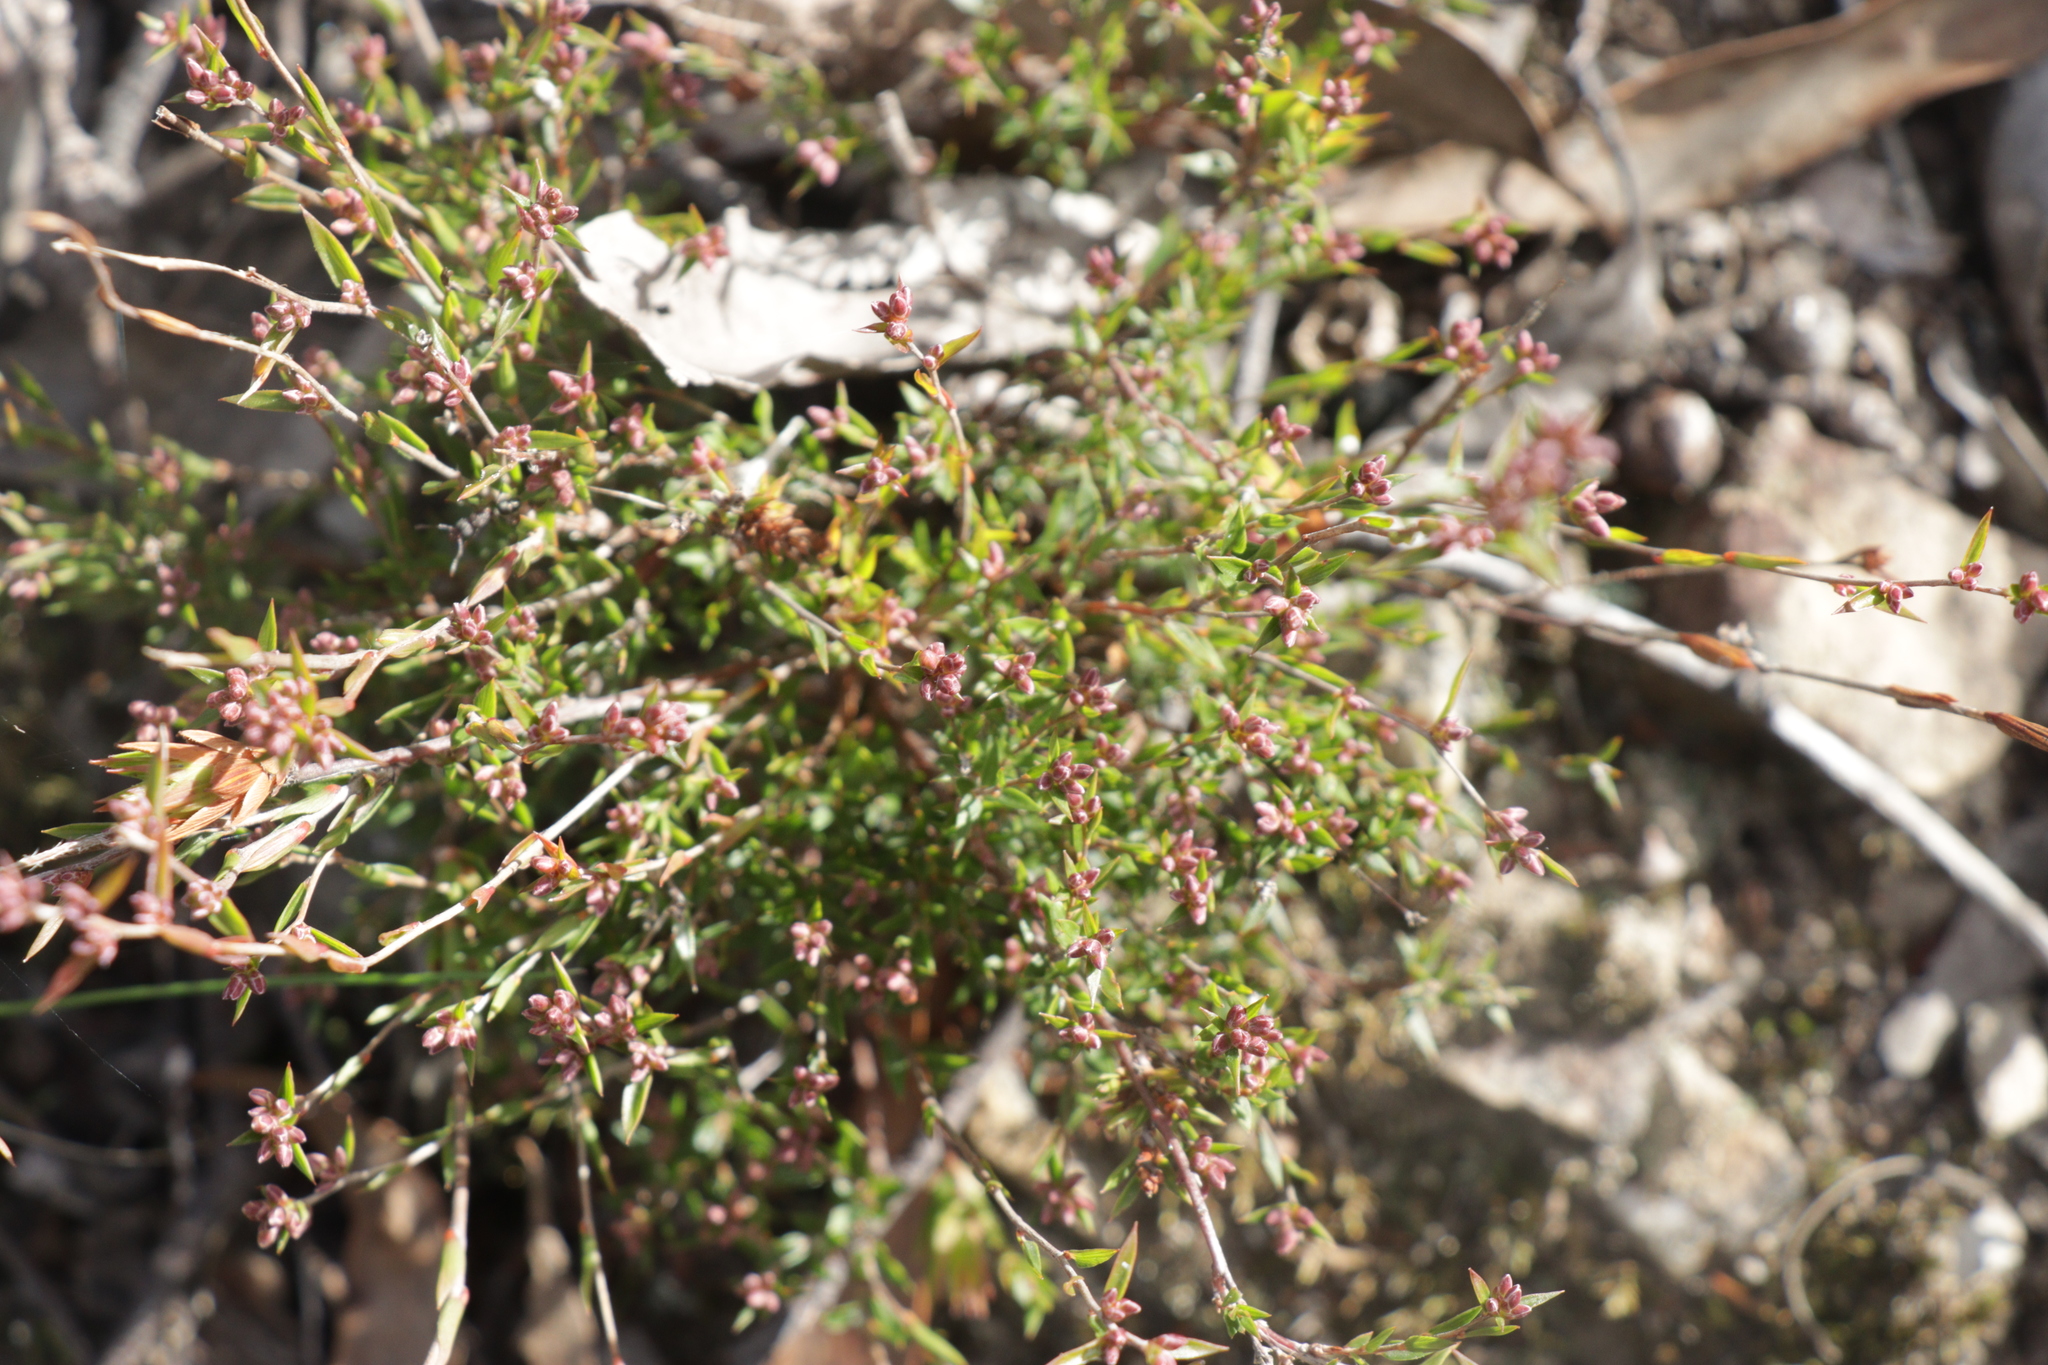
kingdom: Plantae
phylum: Tracheophyta
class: Magnoliopsida
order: Ericales
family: Ericaceae
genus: Leucopogon
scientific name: Leucopogon virgatus
